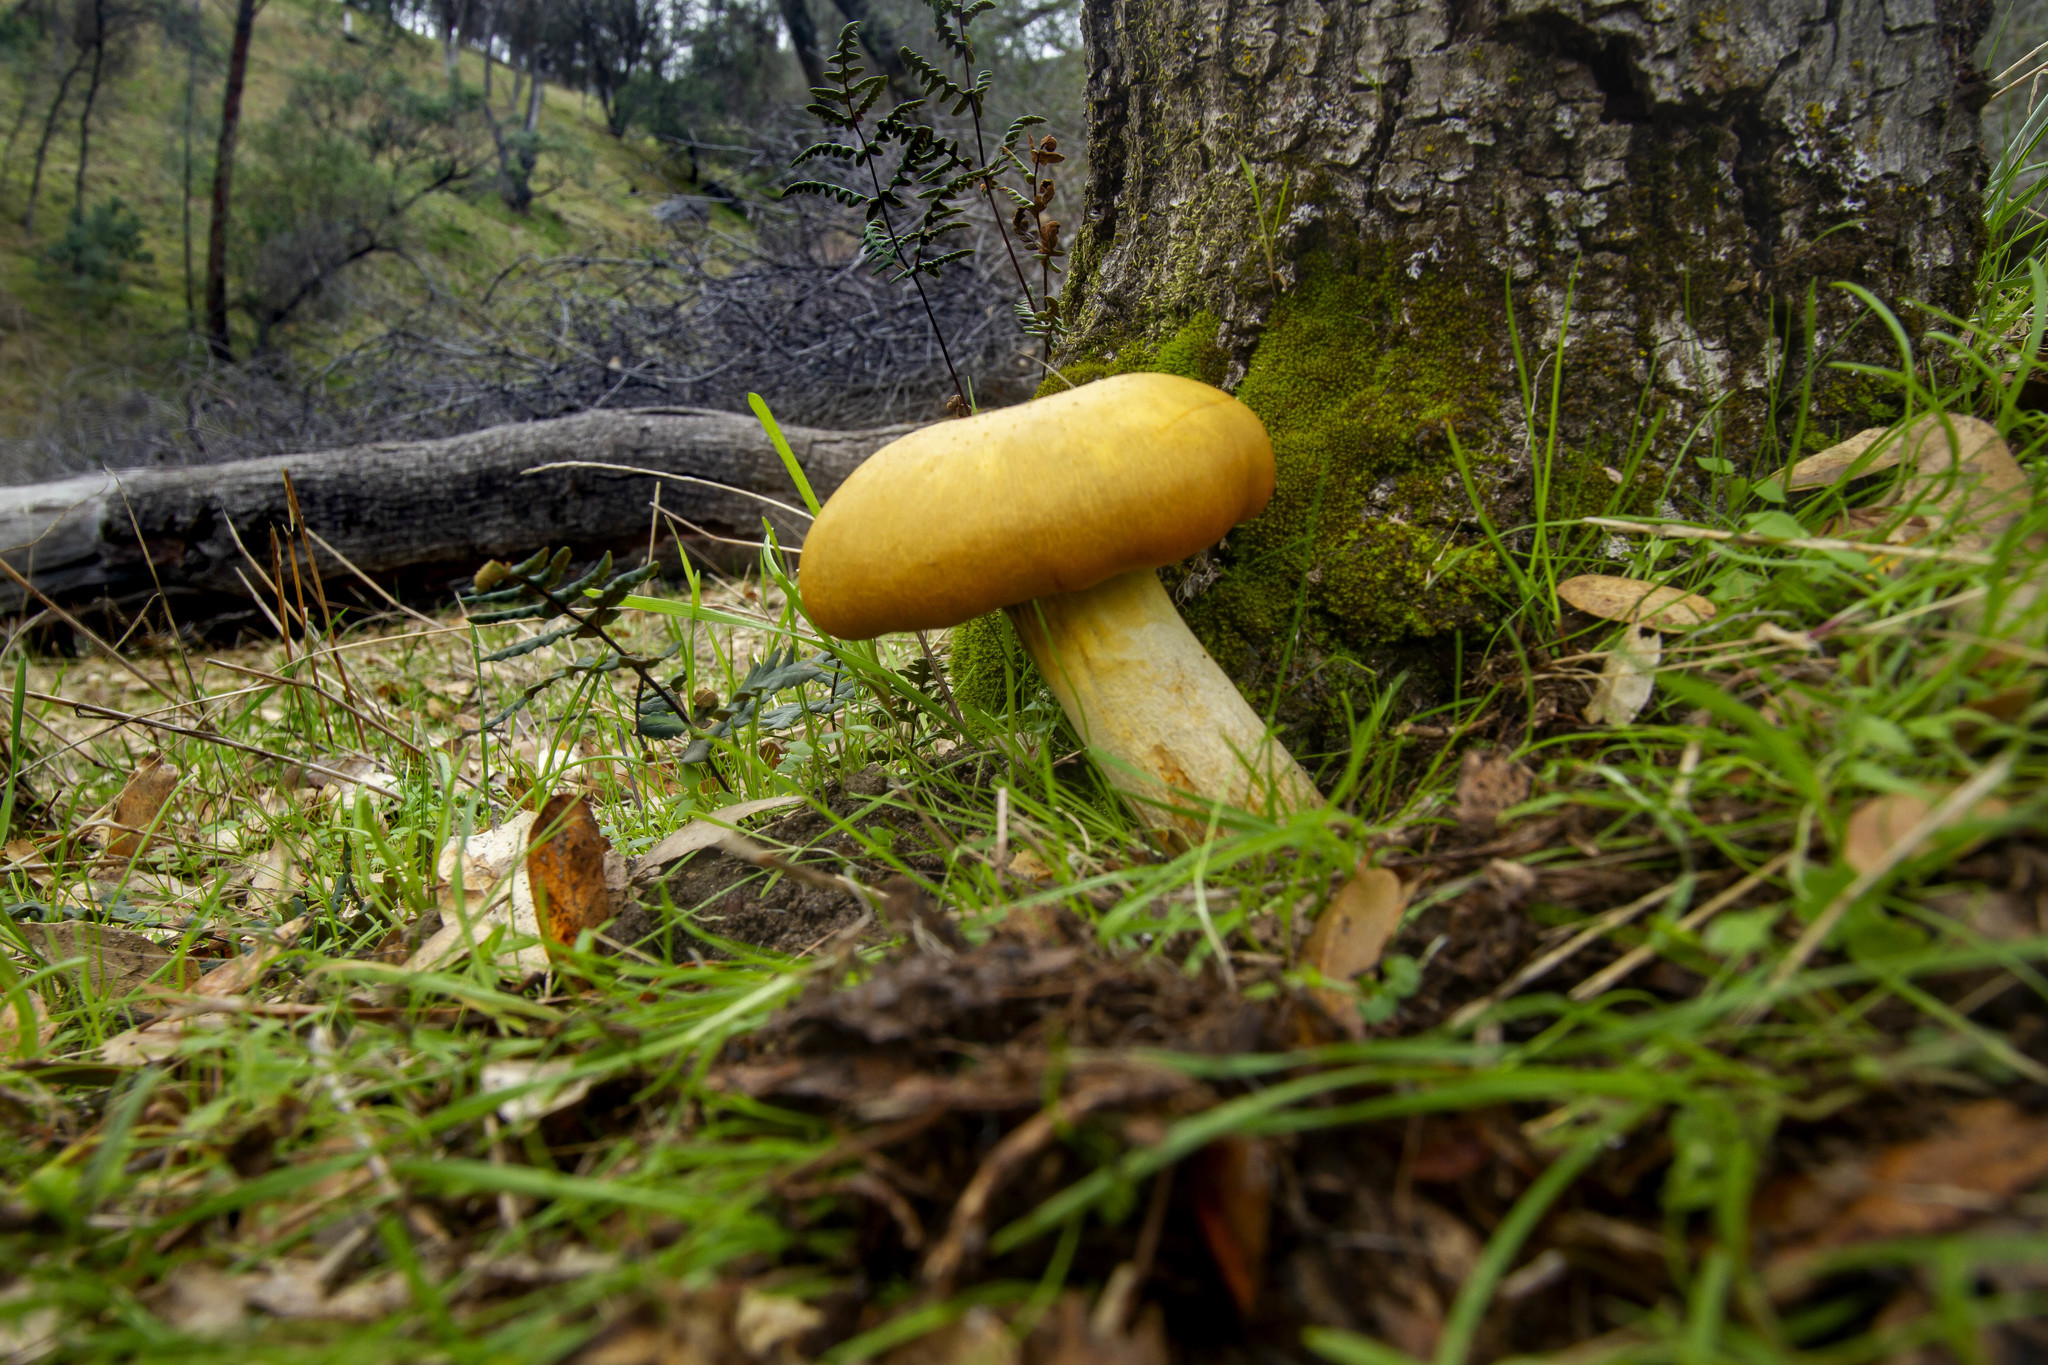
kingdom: Fungi
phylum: Basidiomycota
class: Agaricomycetes
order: Agaricales
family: Omphalotaceae
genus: Omphalotus
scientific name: Omphalotus olivascens
